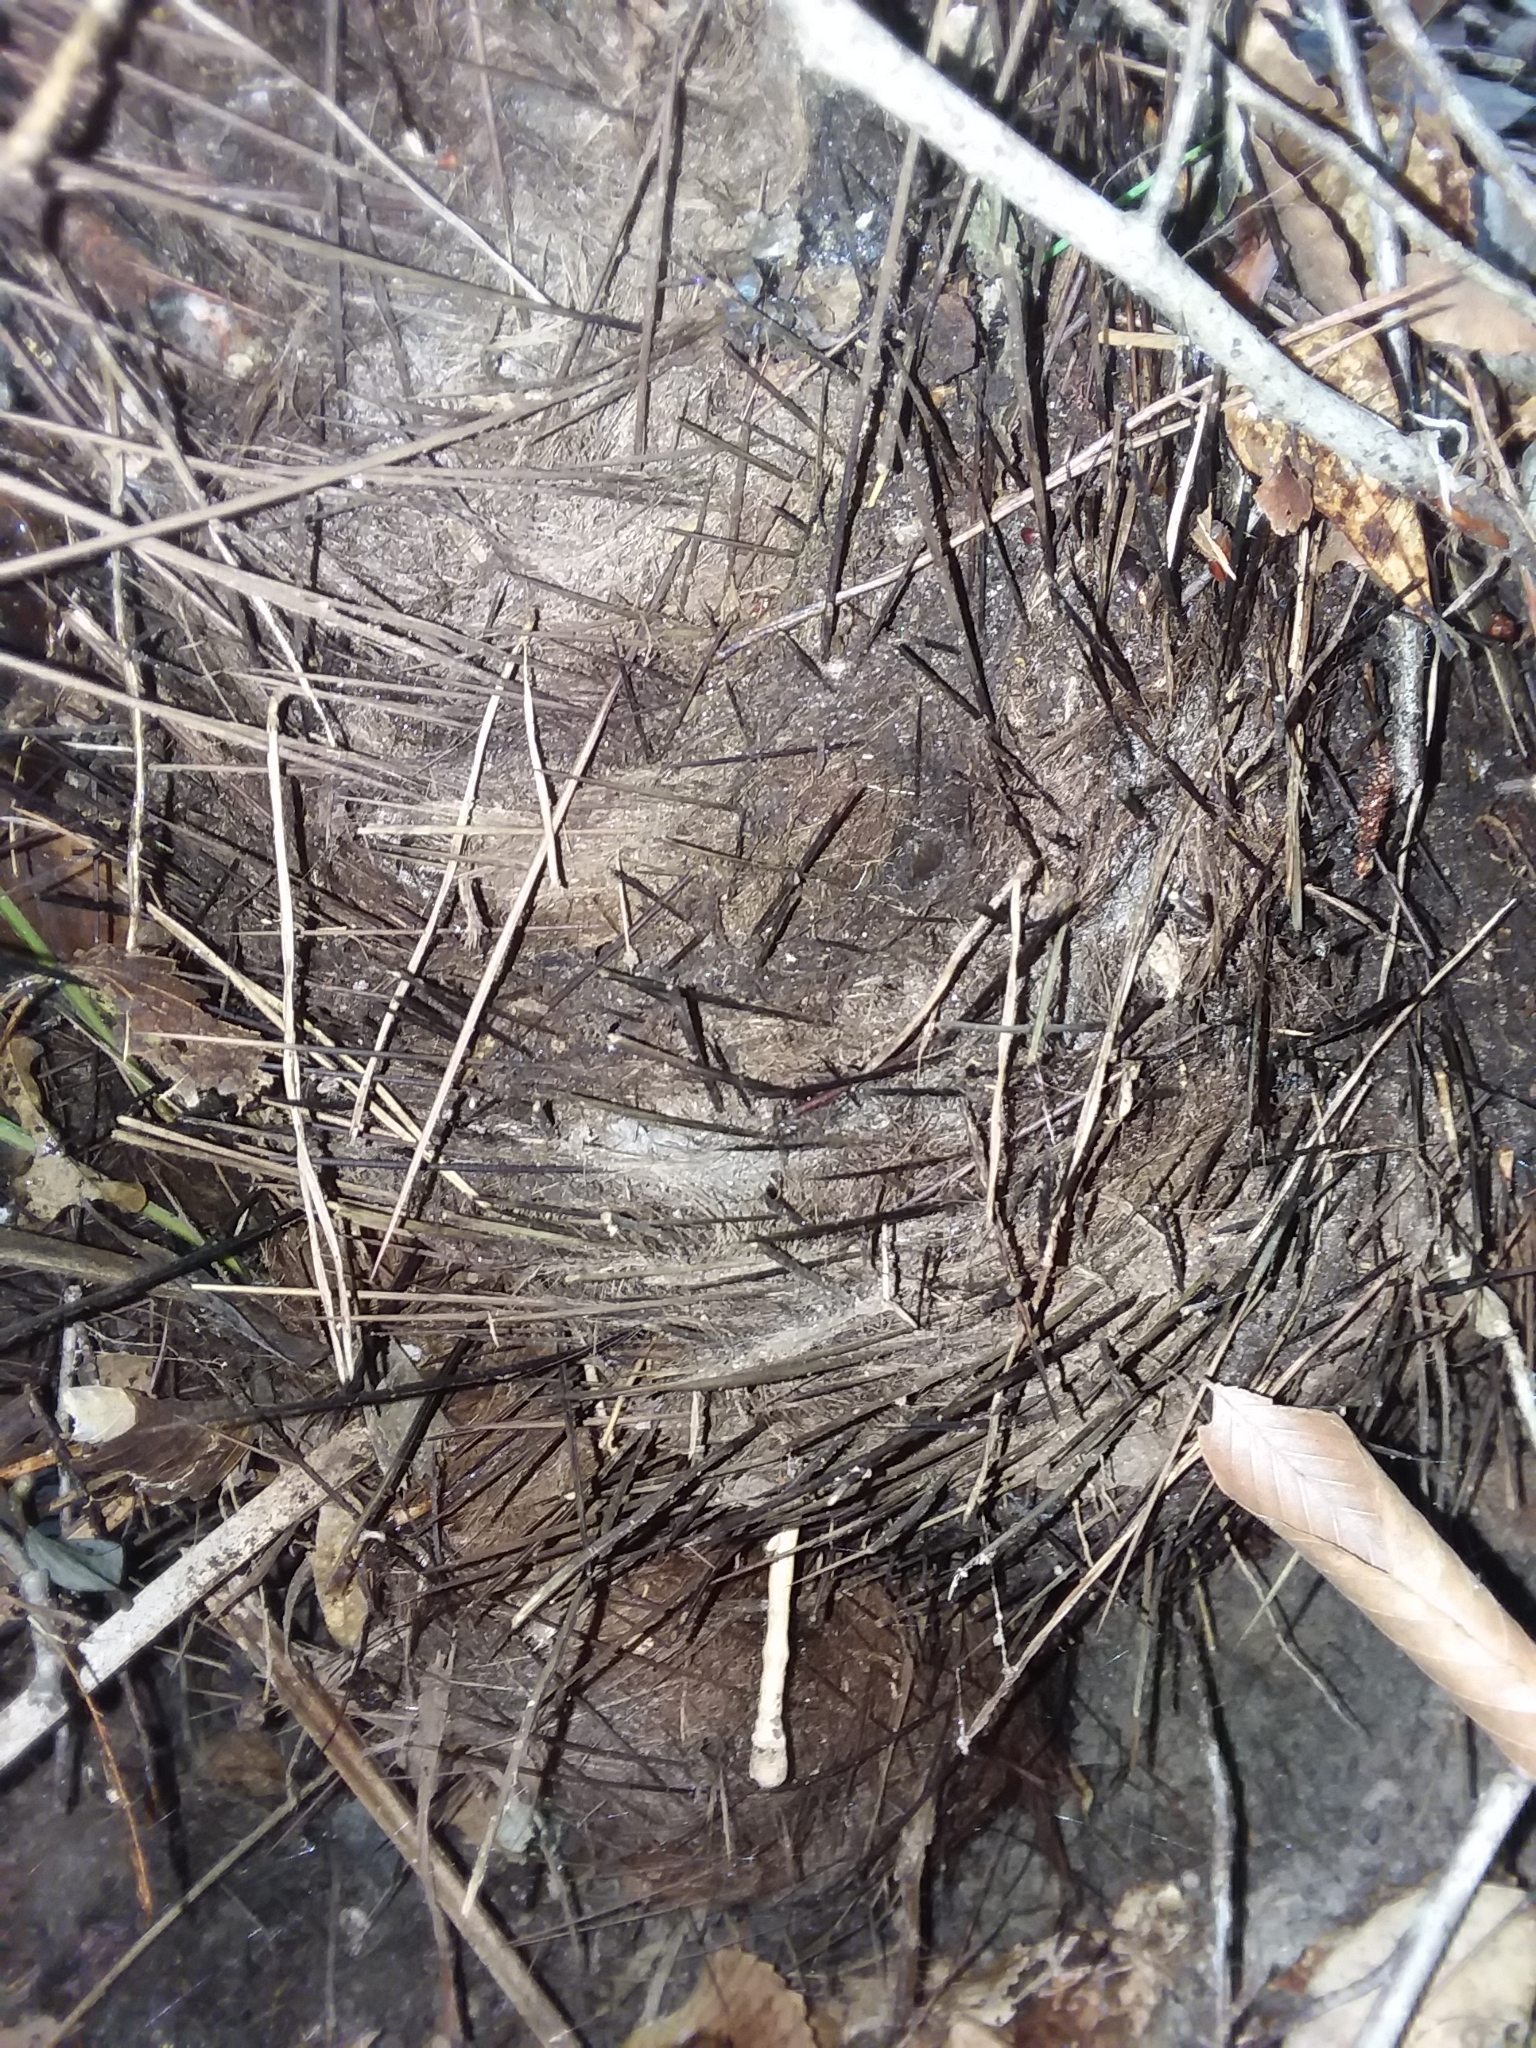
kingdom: Plantae
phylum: Tracheophyta
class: Liliopsida
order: Arecales
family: Arecaceae
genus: Rhapidophyllum
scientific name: Rhapidophyllum hystrix
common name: Porcupine palm
